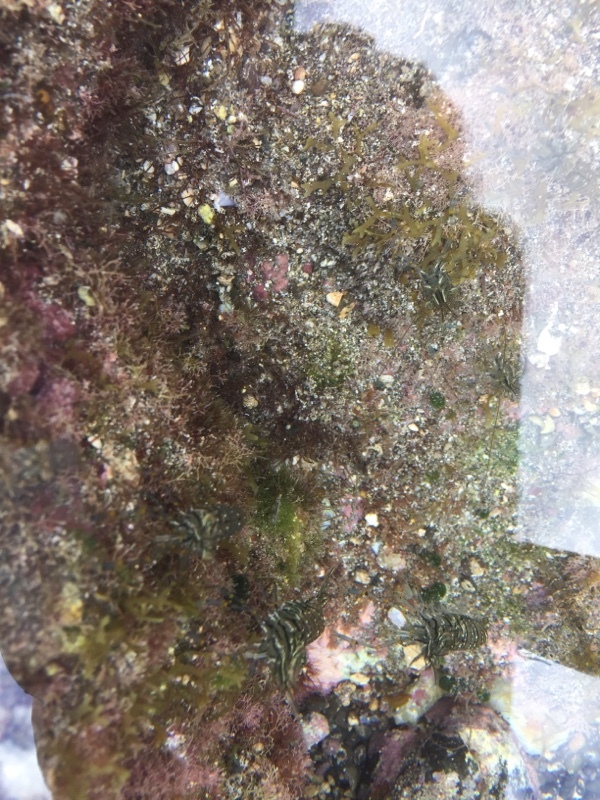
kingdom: Animalia
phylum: Arthropoda
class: Malacostraca
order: Decapoda
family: Palaemonidae
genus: Palaemon
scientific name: Palaemon elegans
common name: Grass prawm
